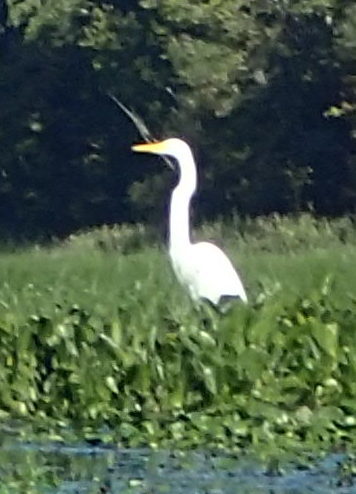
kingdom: Animalia
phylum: Chordata
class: Aves
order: Pelecaniformes
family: Ardeidae
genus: Ardea
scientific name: Ardea alba
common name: Great egret
